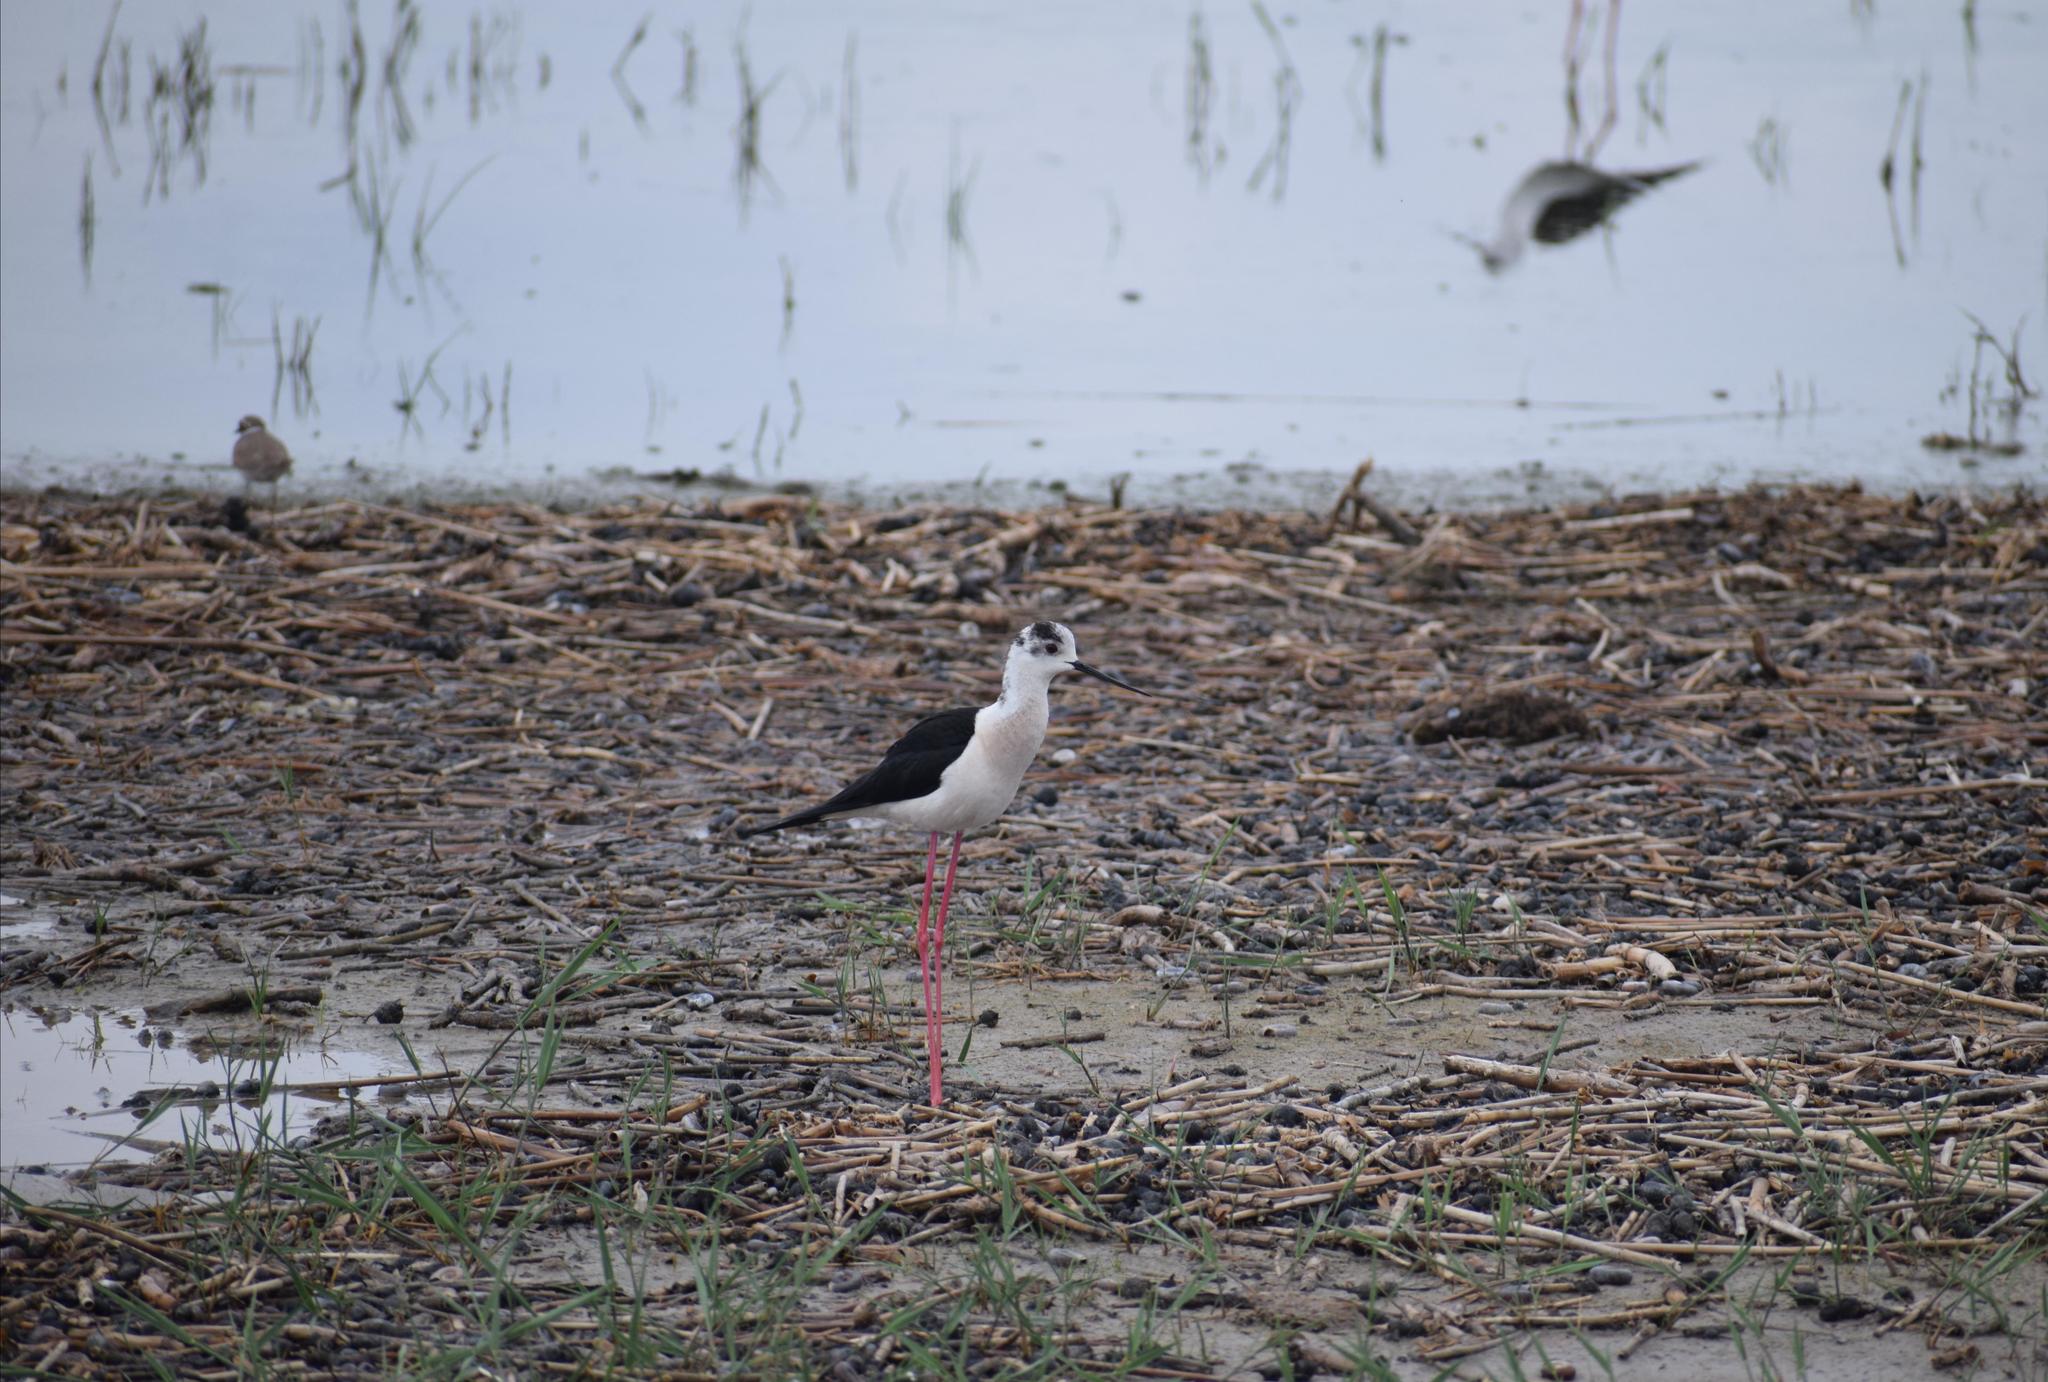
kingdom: Animalia
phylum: Chordata
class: Aves
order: Charadriiformes
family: Recurvirostridae
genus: Himantopus
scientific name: Himantopus himantopus
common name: Black-winged stilt
